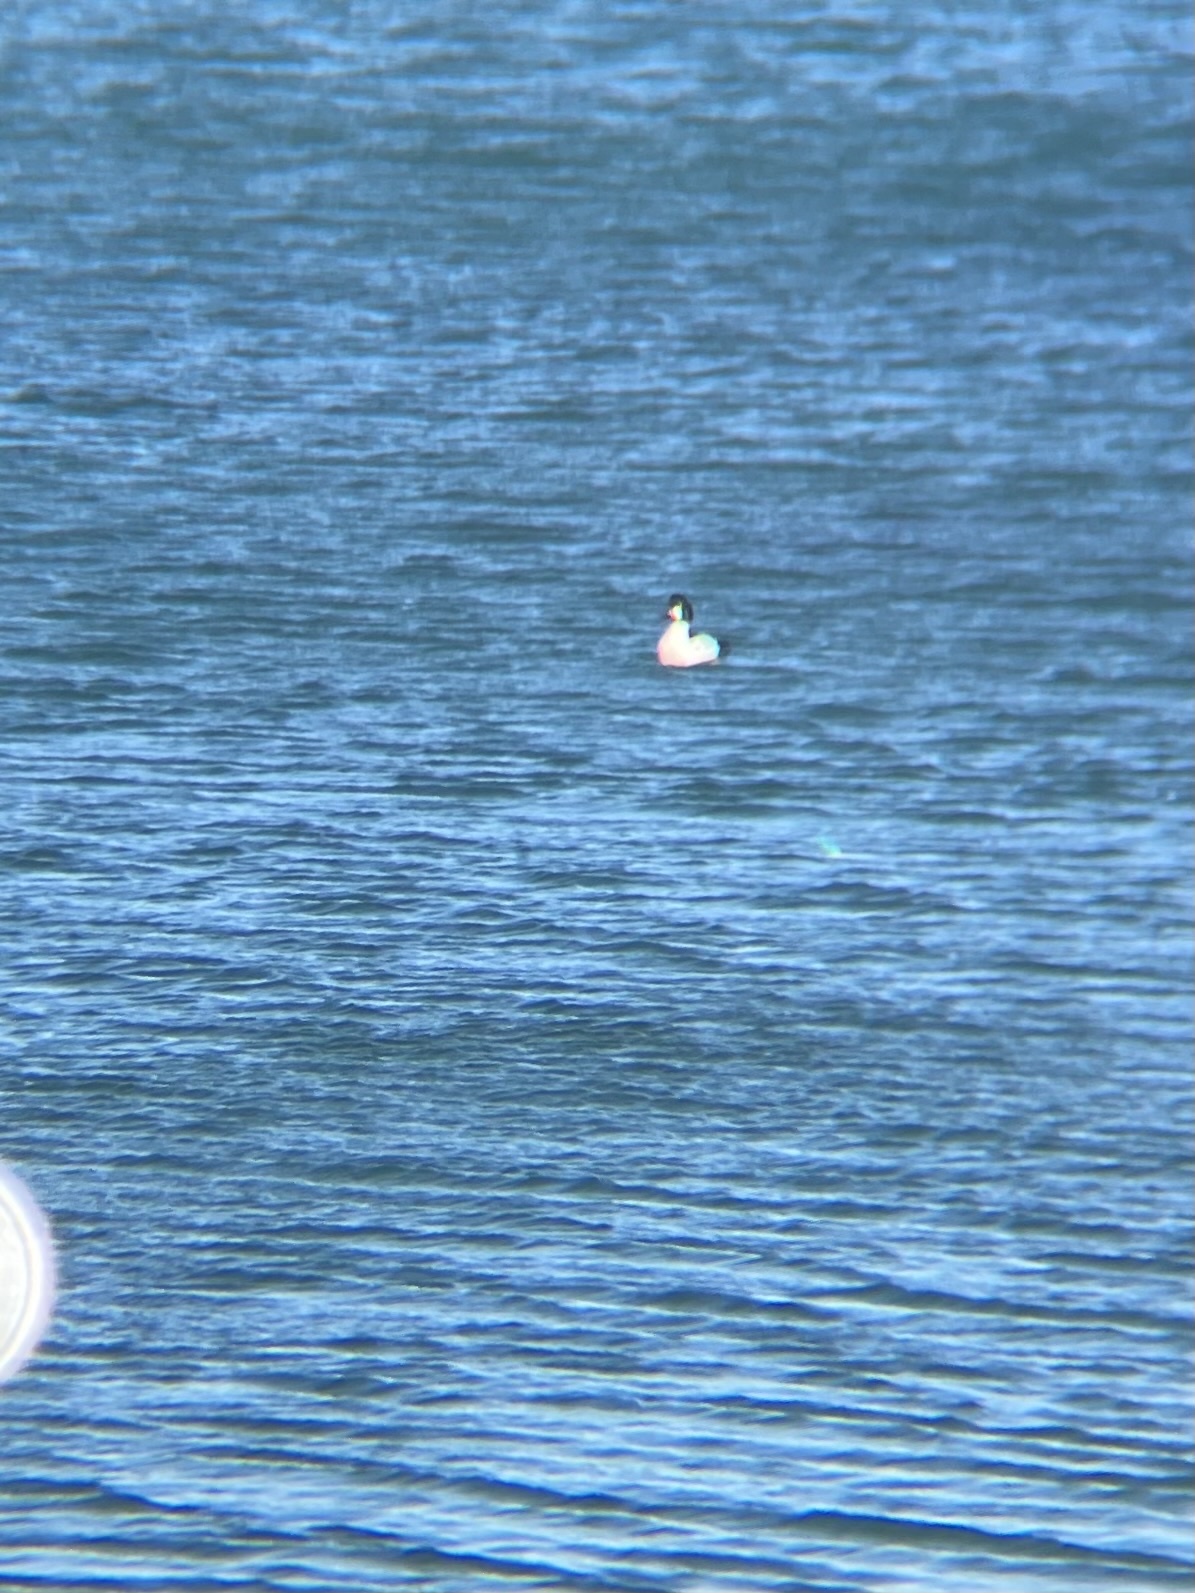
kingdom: Animalia
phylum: Chordata
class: Aves
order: Anseriformes
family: Anatidae
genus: Bucephala
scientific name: Bucephala clangula
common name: Common goldeneye
